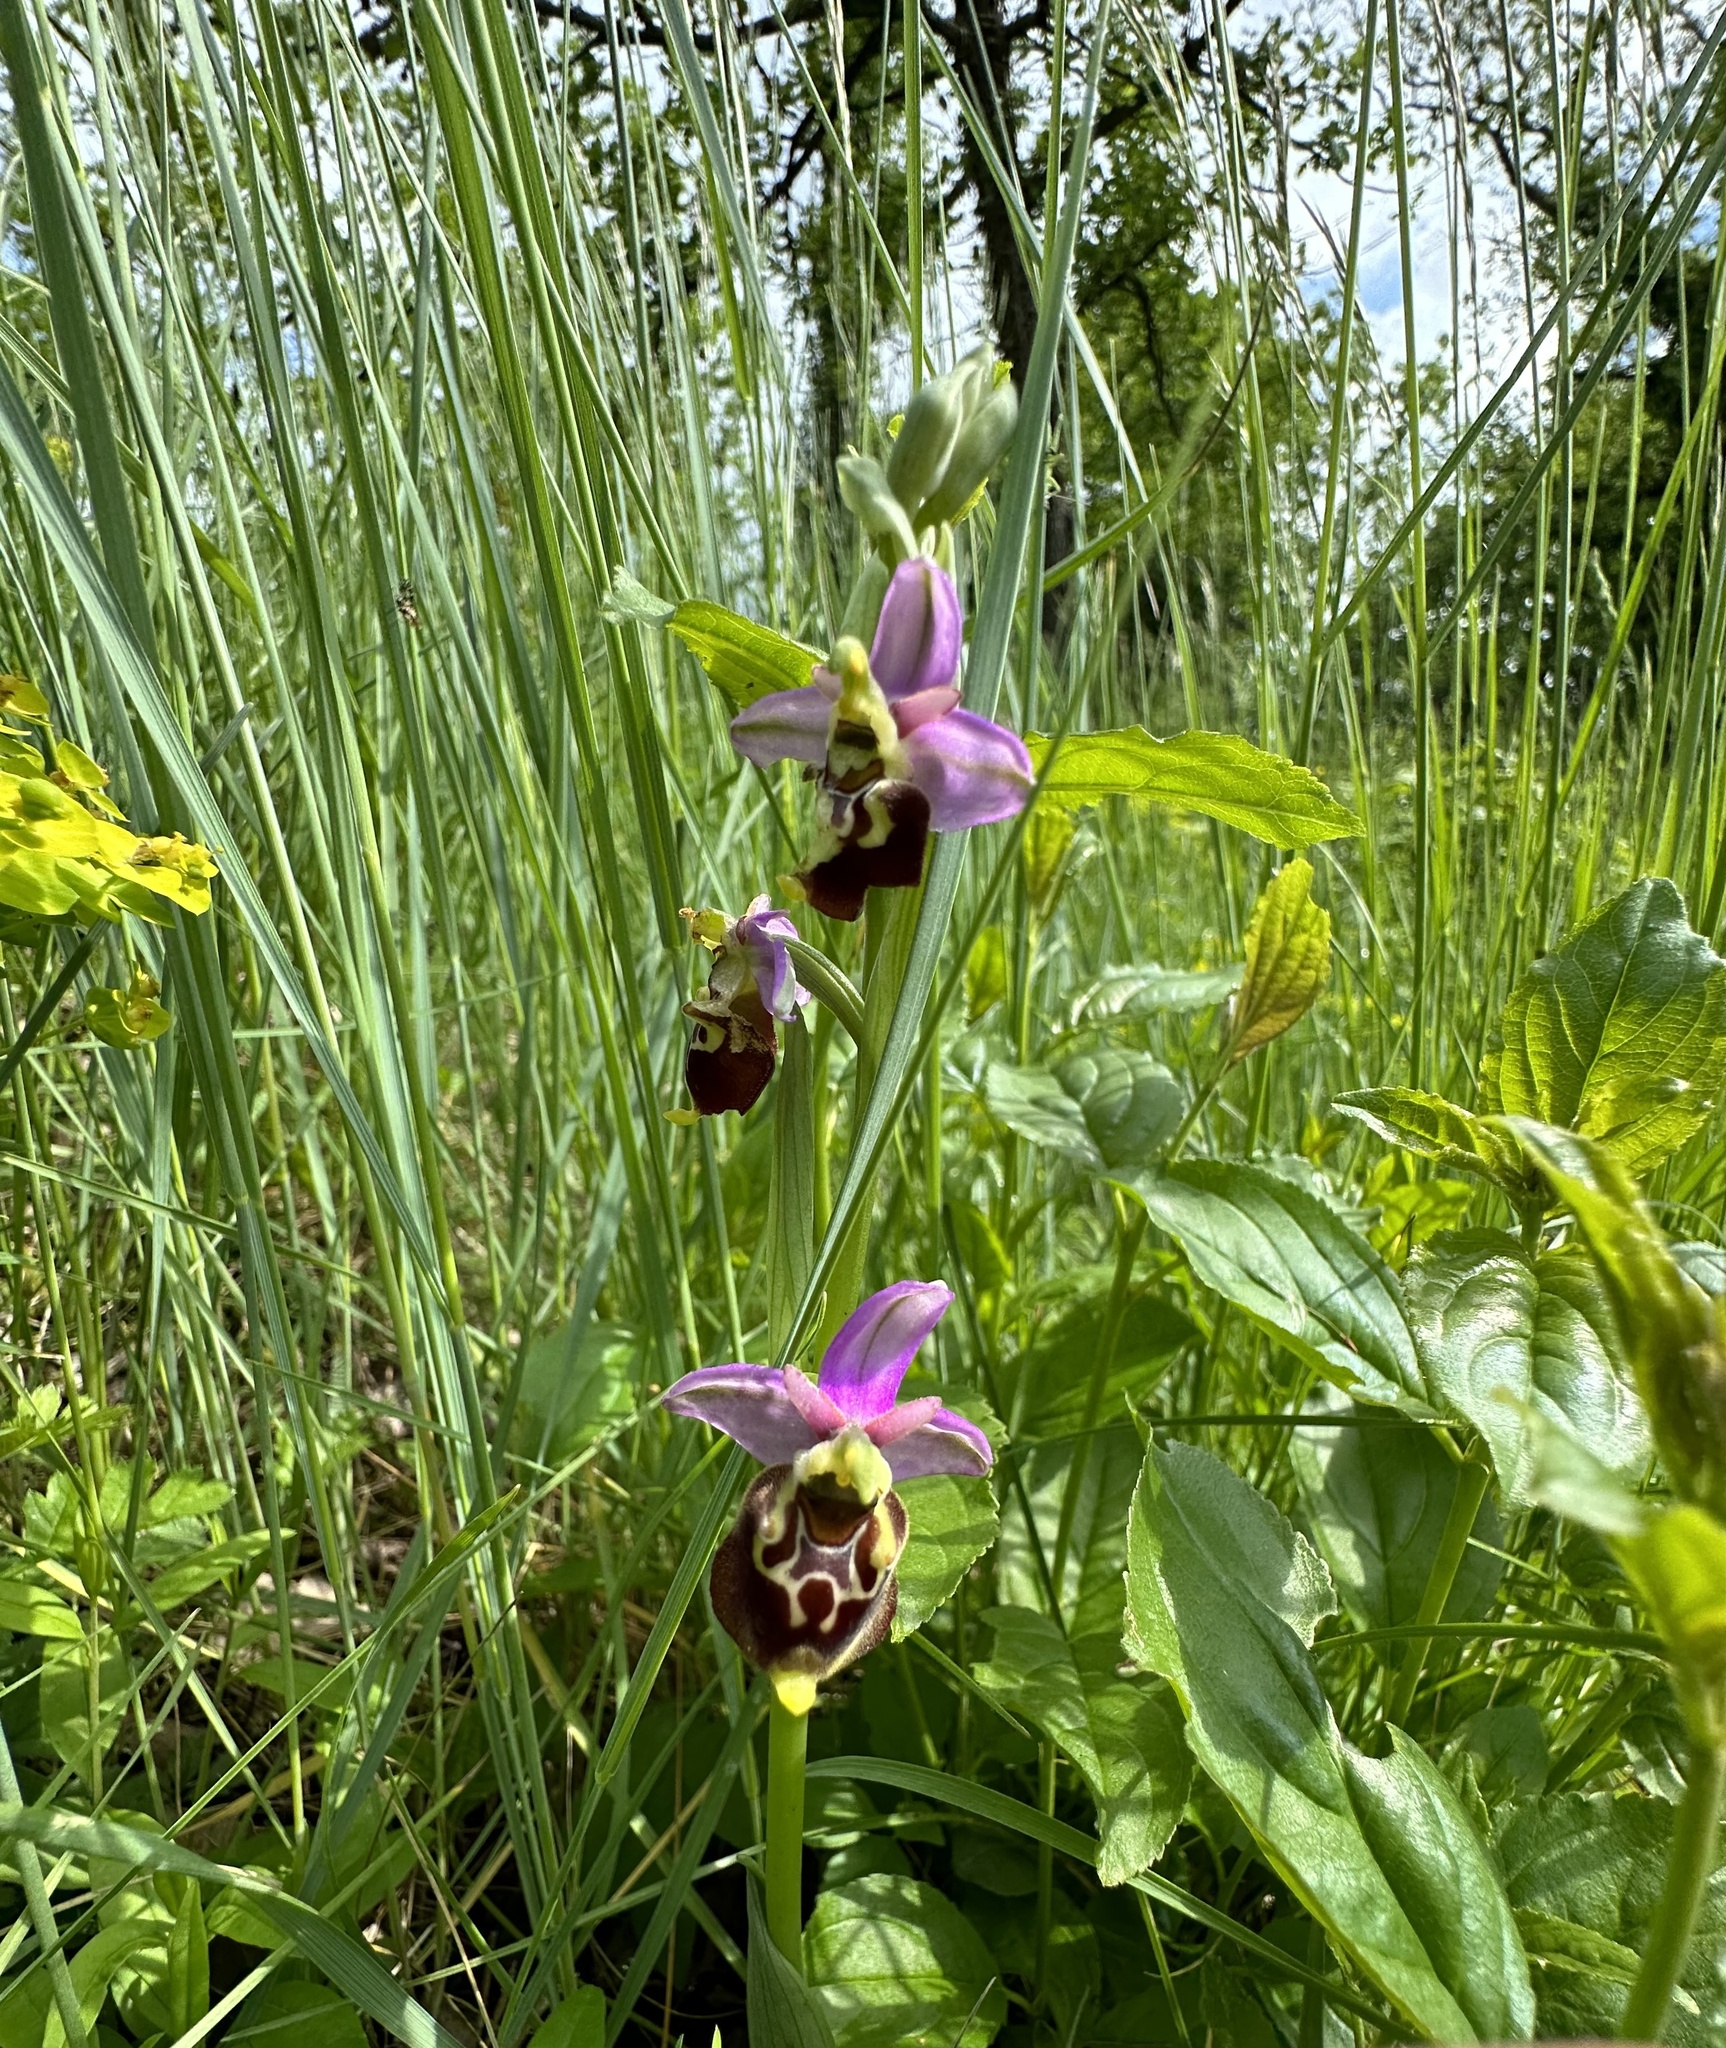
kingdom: Plantae
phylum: Tracheophyta
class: Liliopsida
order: Asparagales
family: Orchidaceae
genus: Ophrys
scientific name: Ophrys holosericea
